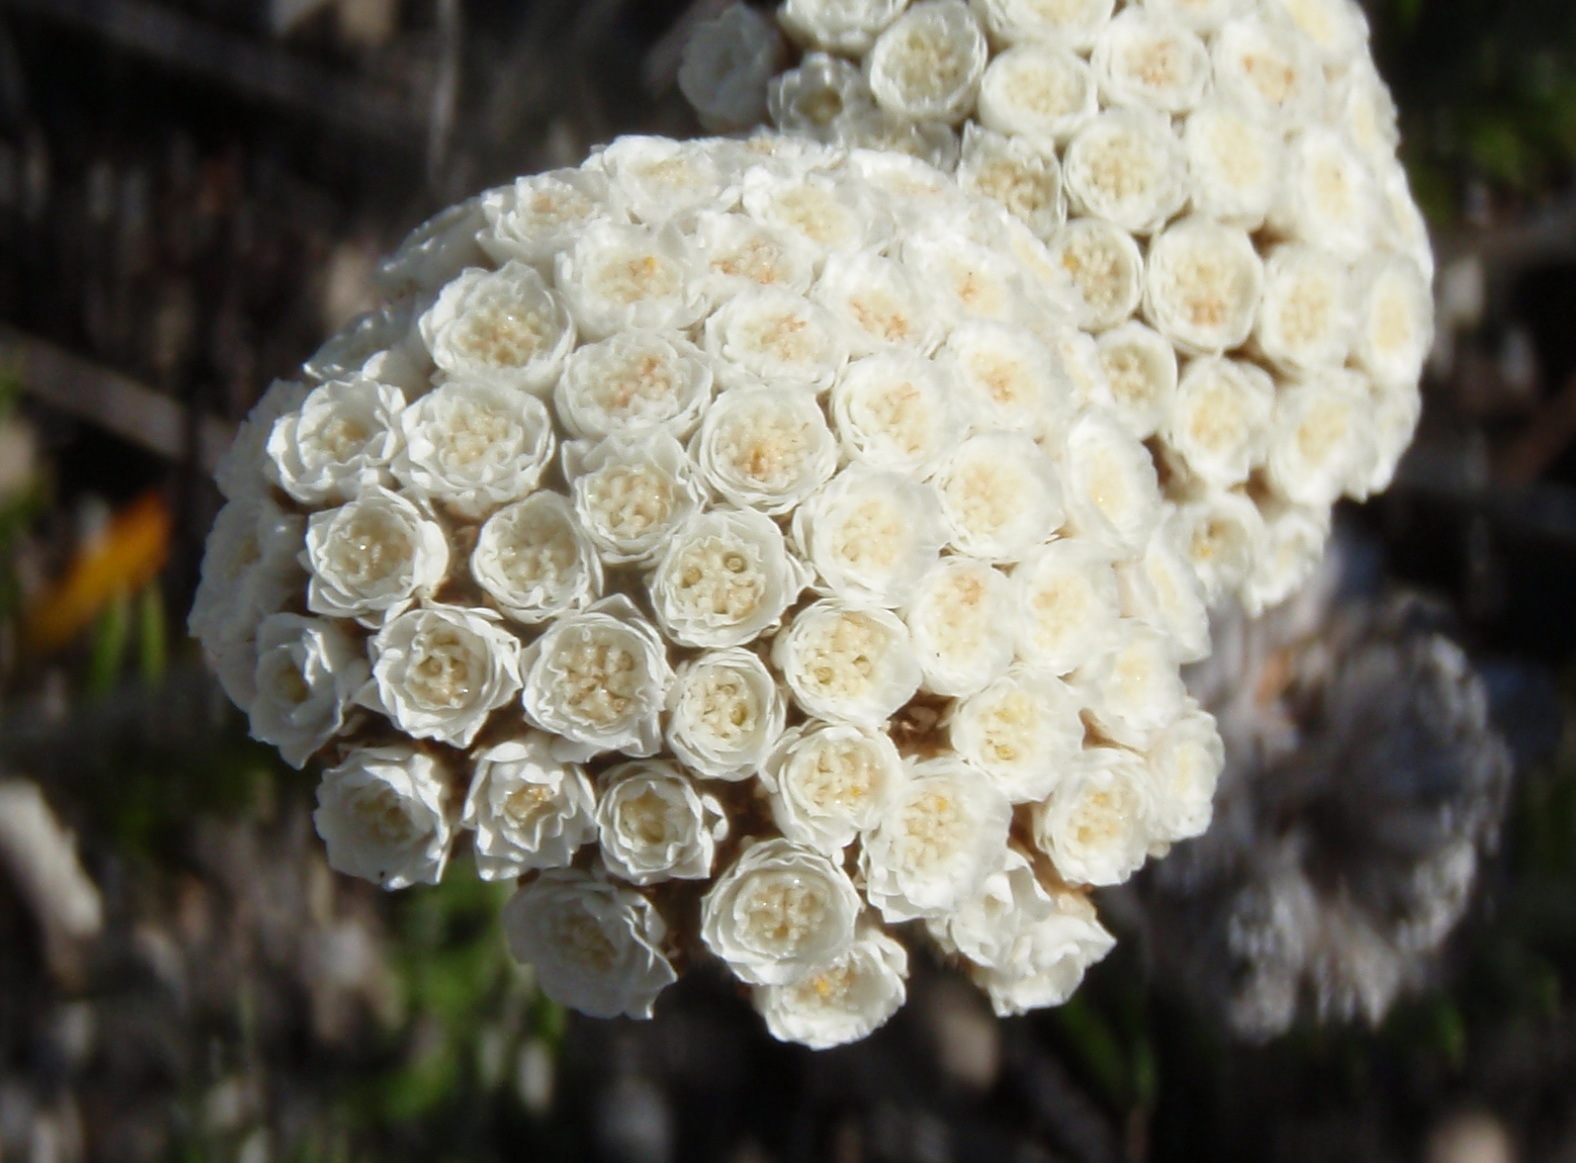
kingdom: Plantae
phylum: Tracheophyta
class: Magnoliopsida
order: Asterales
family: Asteraceae
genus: Anaxeton
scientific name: Anaxeton asperum
